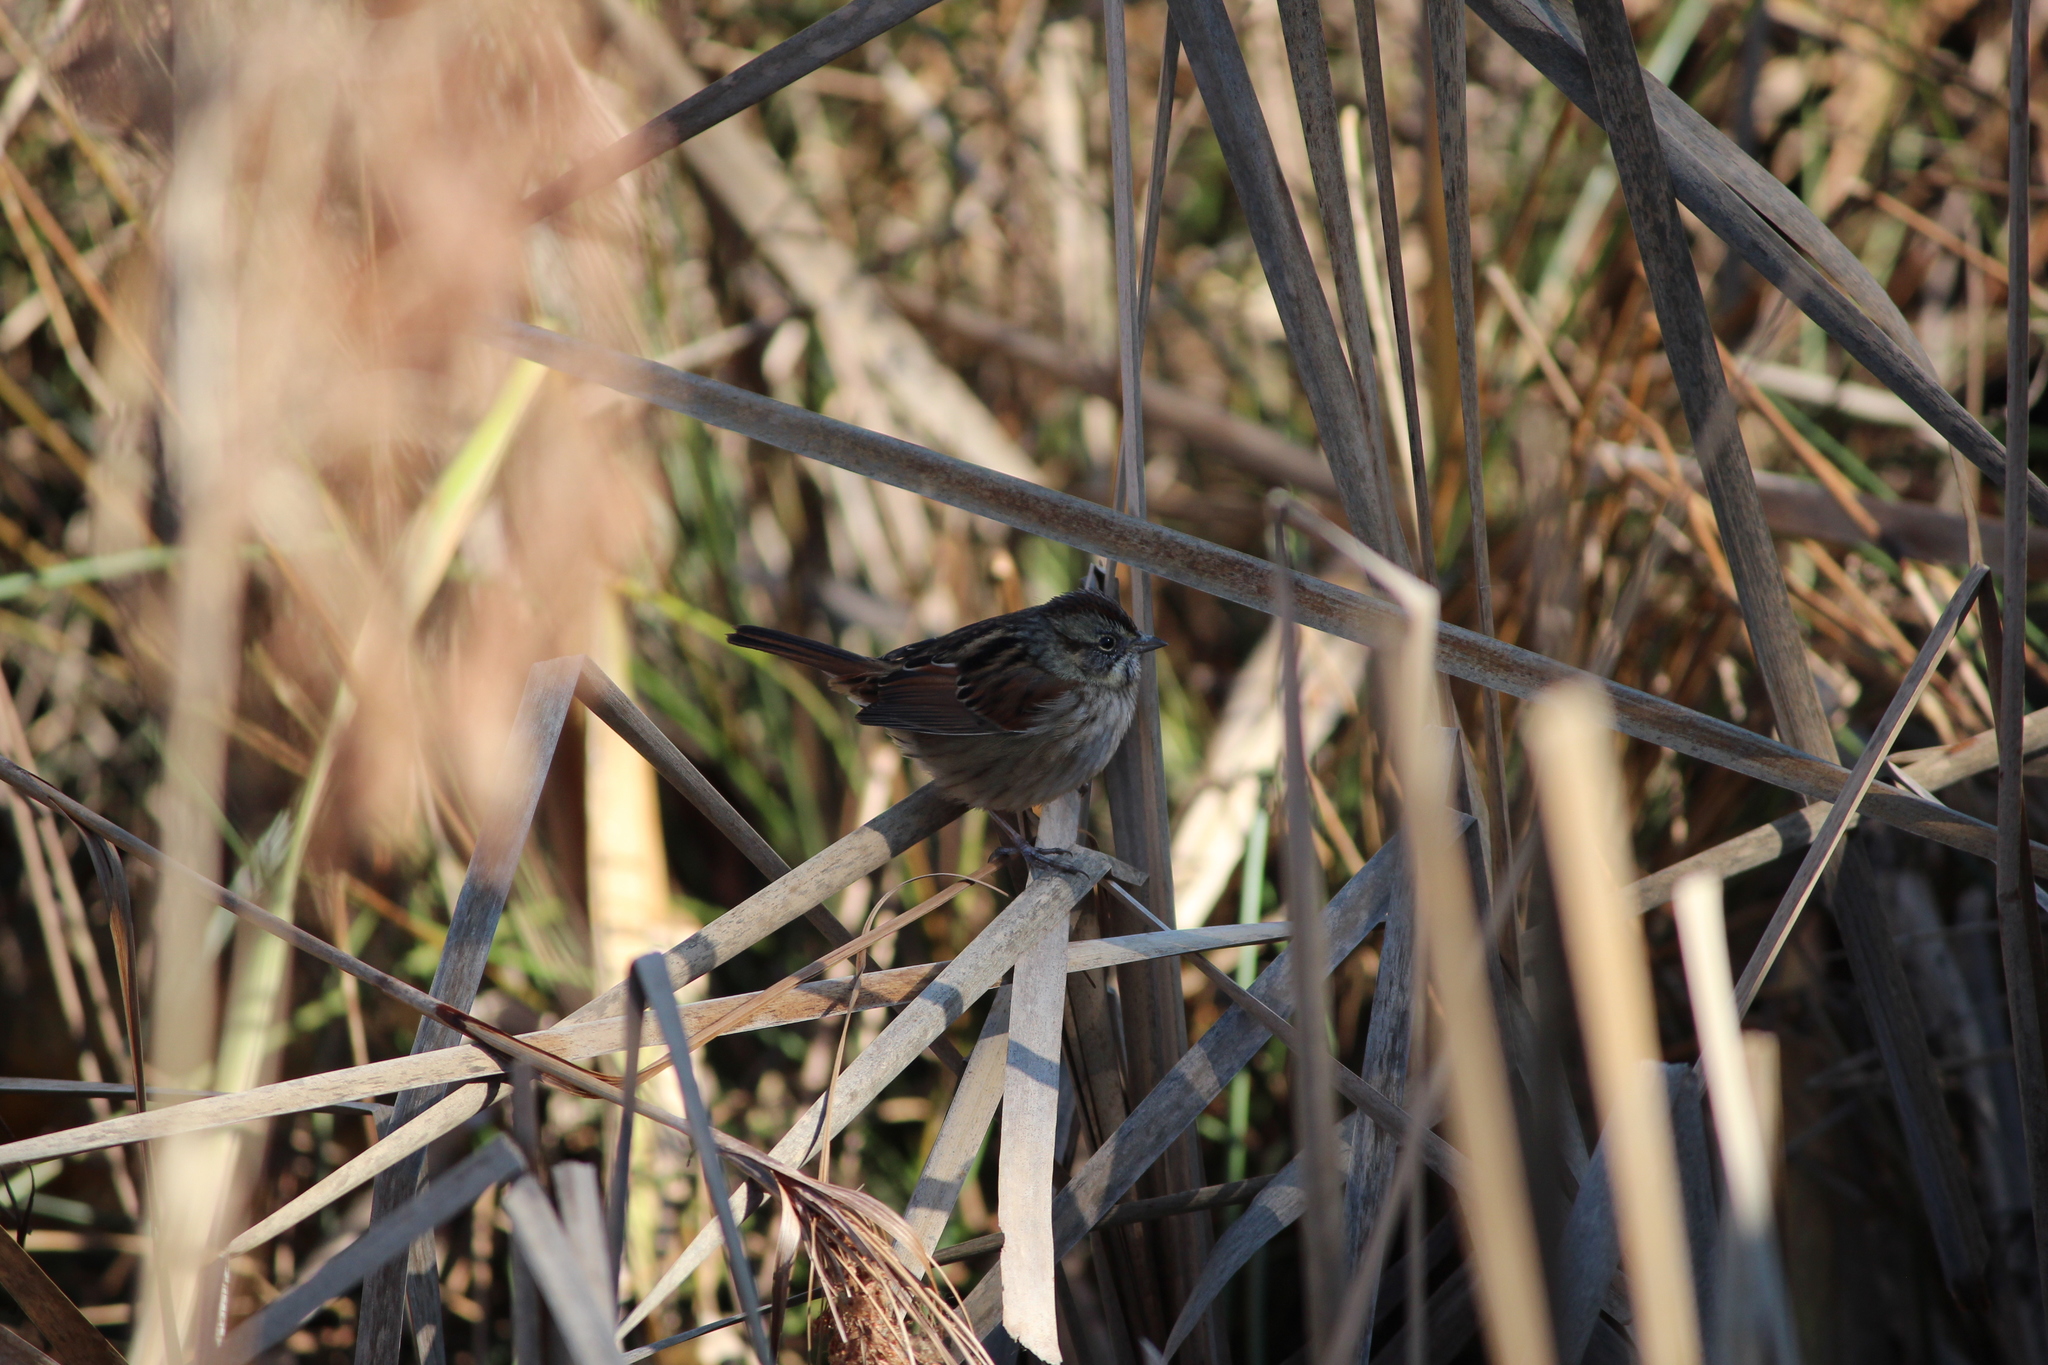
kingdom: Animalia
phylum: Chordata
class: Aves
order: Passeriformes
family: Passerellidae
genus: Melospiza
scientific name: Melospiza georgiana
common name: Swamp sparrow
